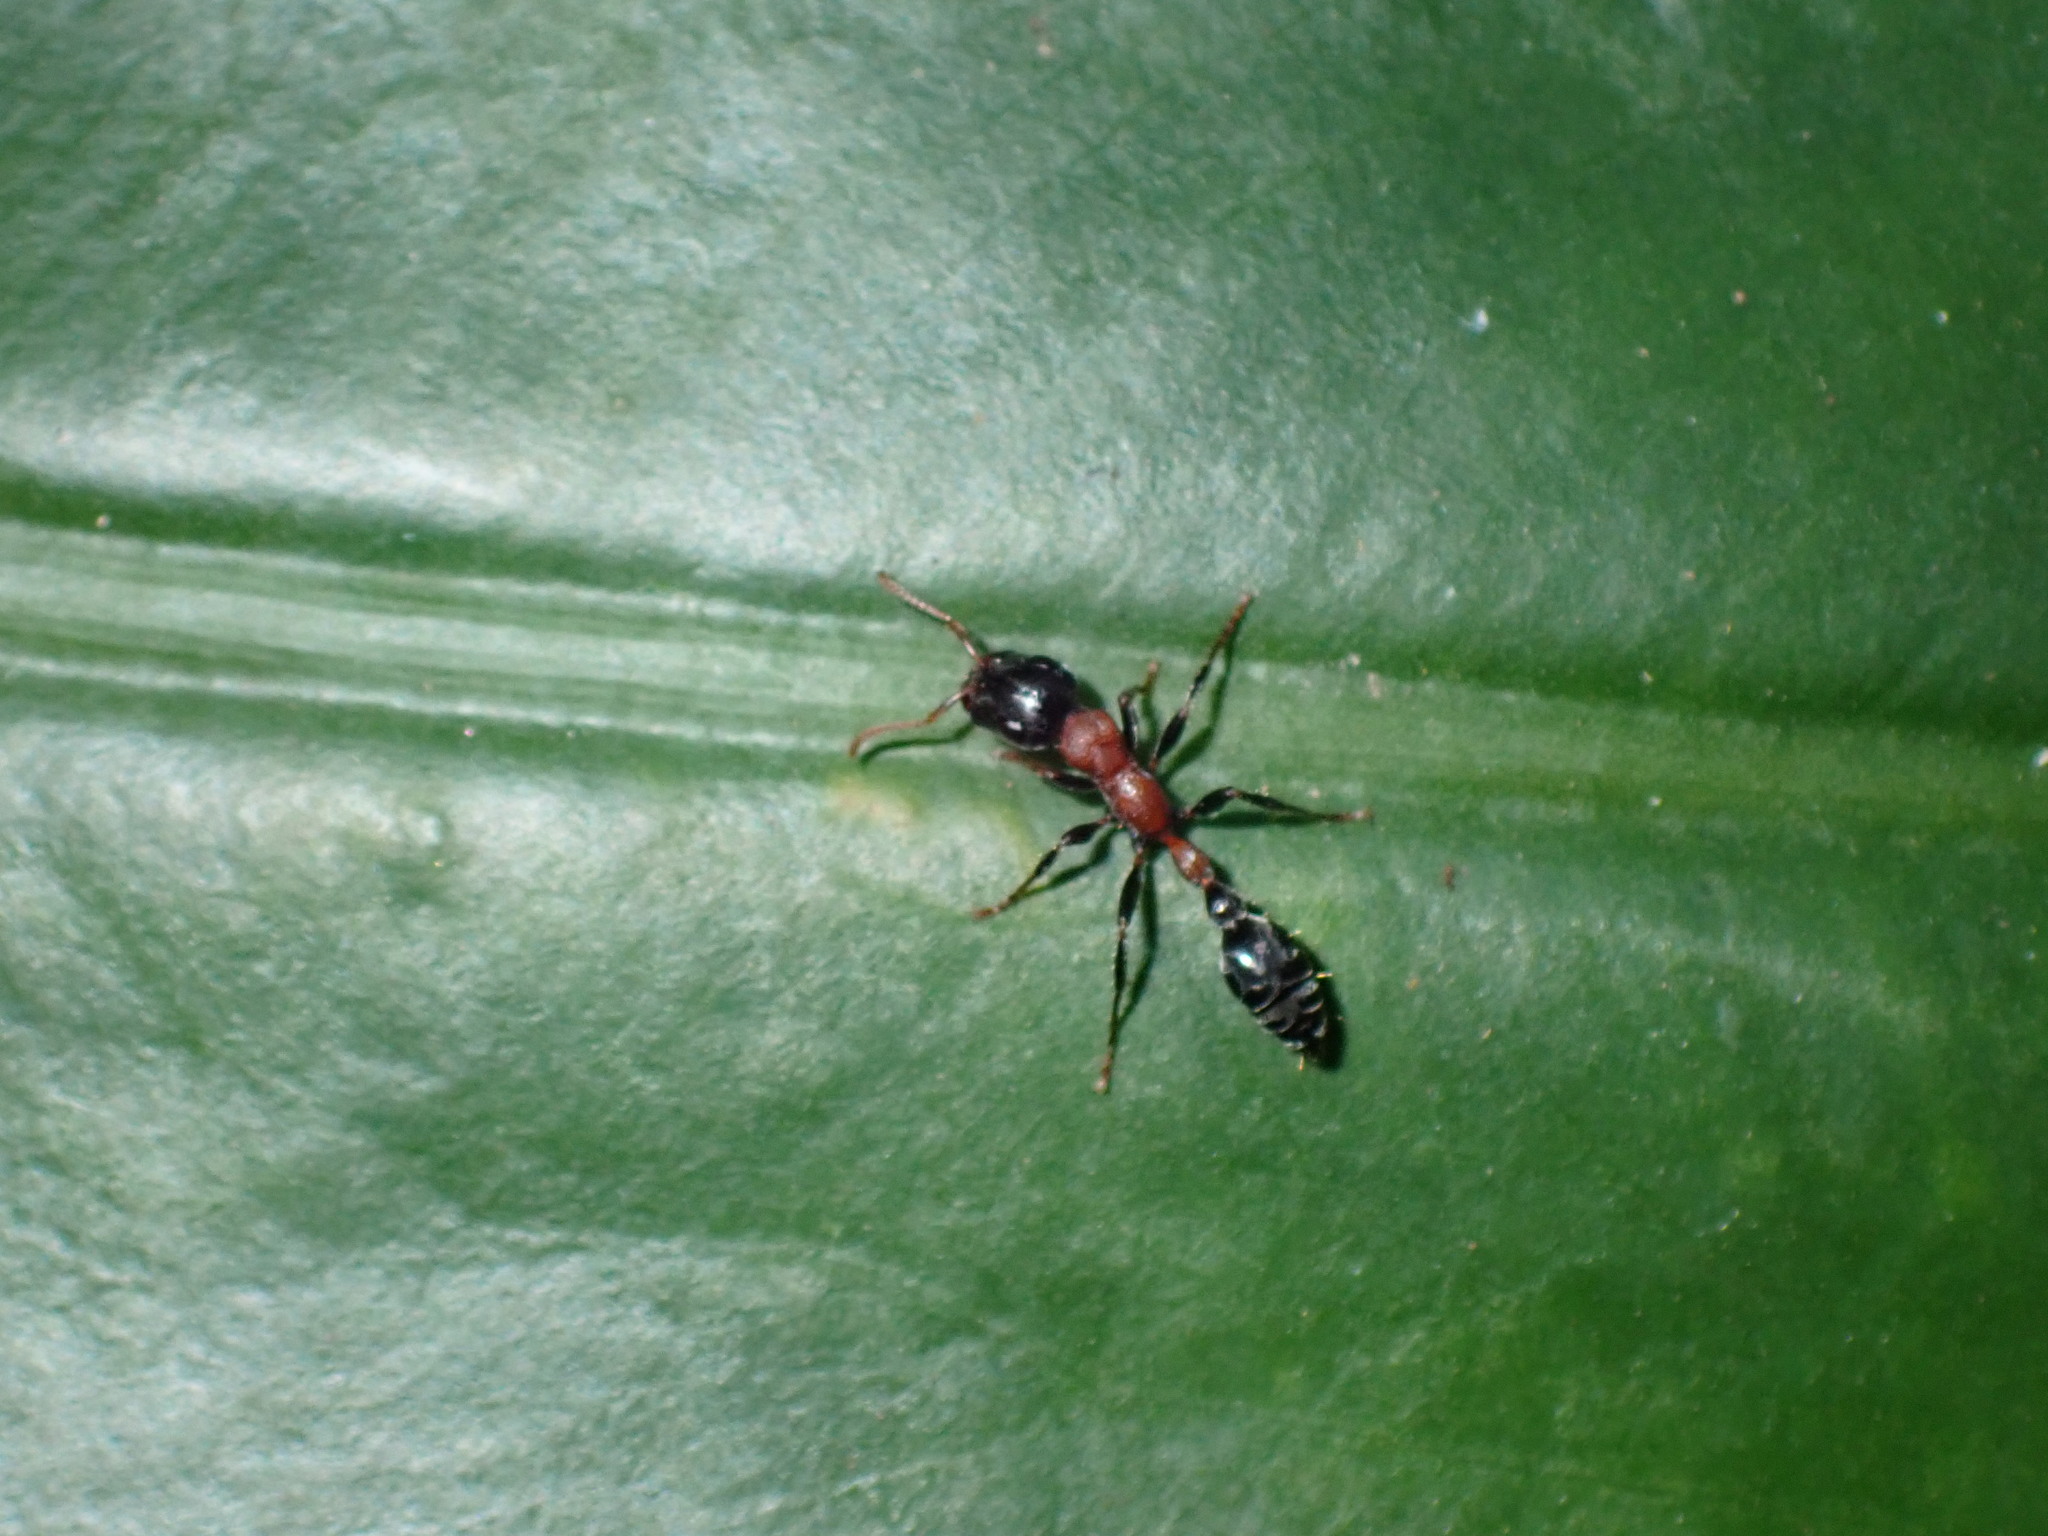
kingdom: Animalia
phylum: Arthropoda
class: Insecta
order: Hymenoptera
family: Formicidae
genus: Tetraponera
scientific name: Tetraponera rufonigra
